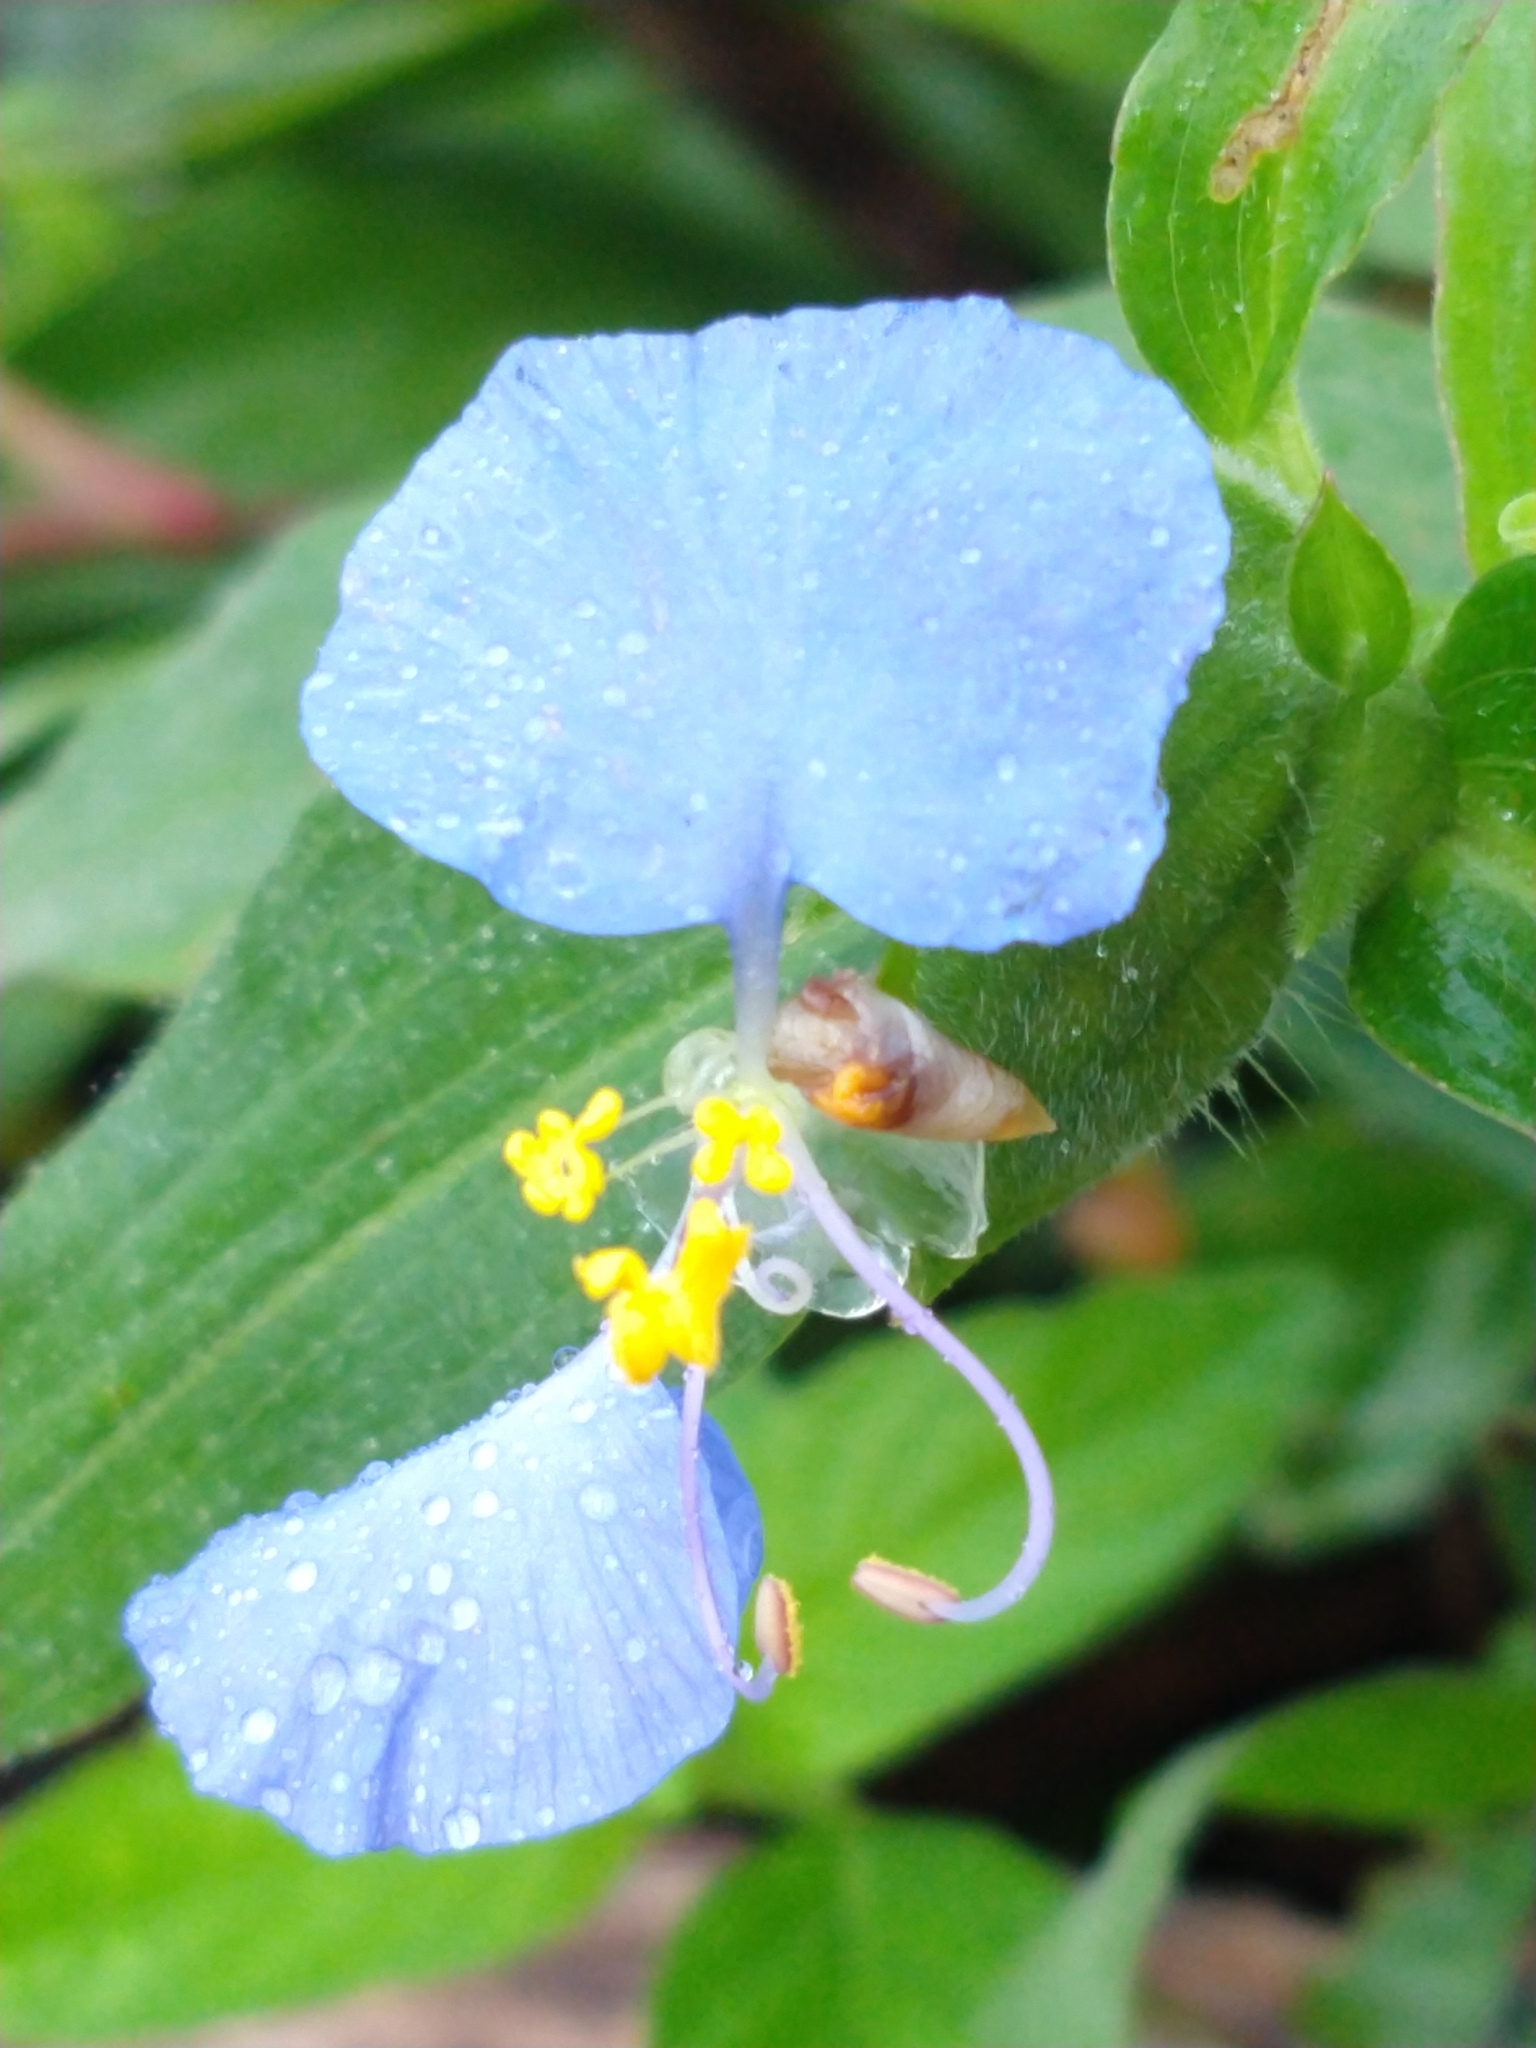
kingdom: Plantae
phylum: Tracheophyta
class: Liliopsida
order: Commelinales
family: Commelinaceae
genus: Commelina
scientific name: Commelina erecta
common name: Blousel blommetjie
